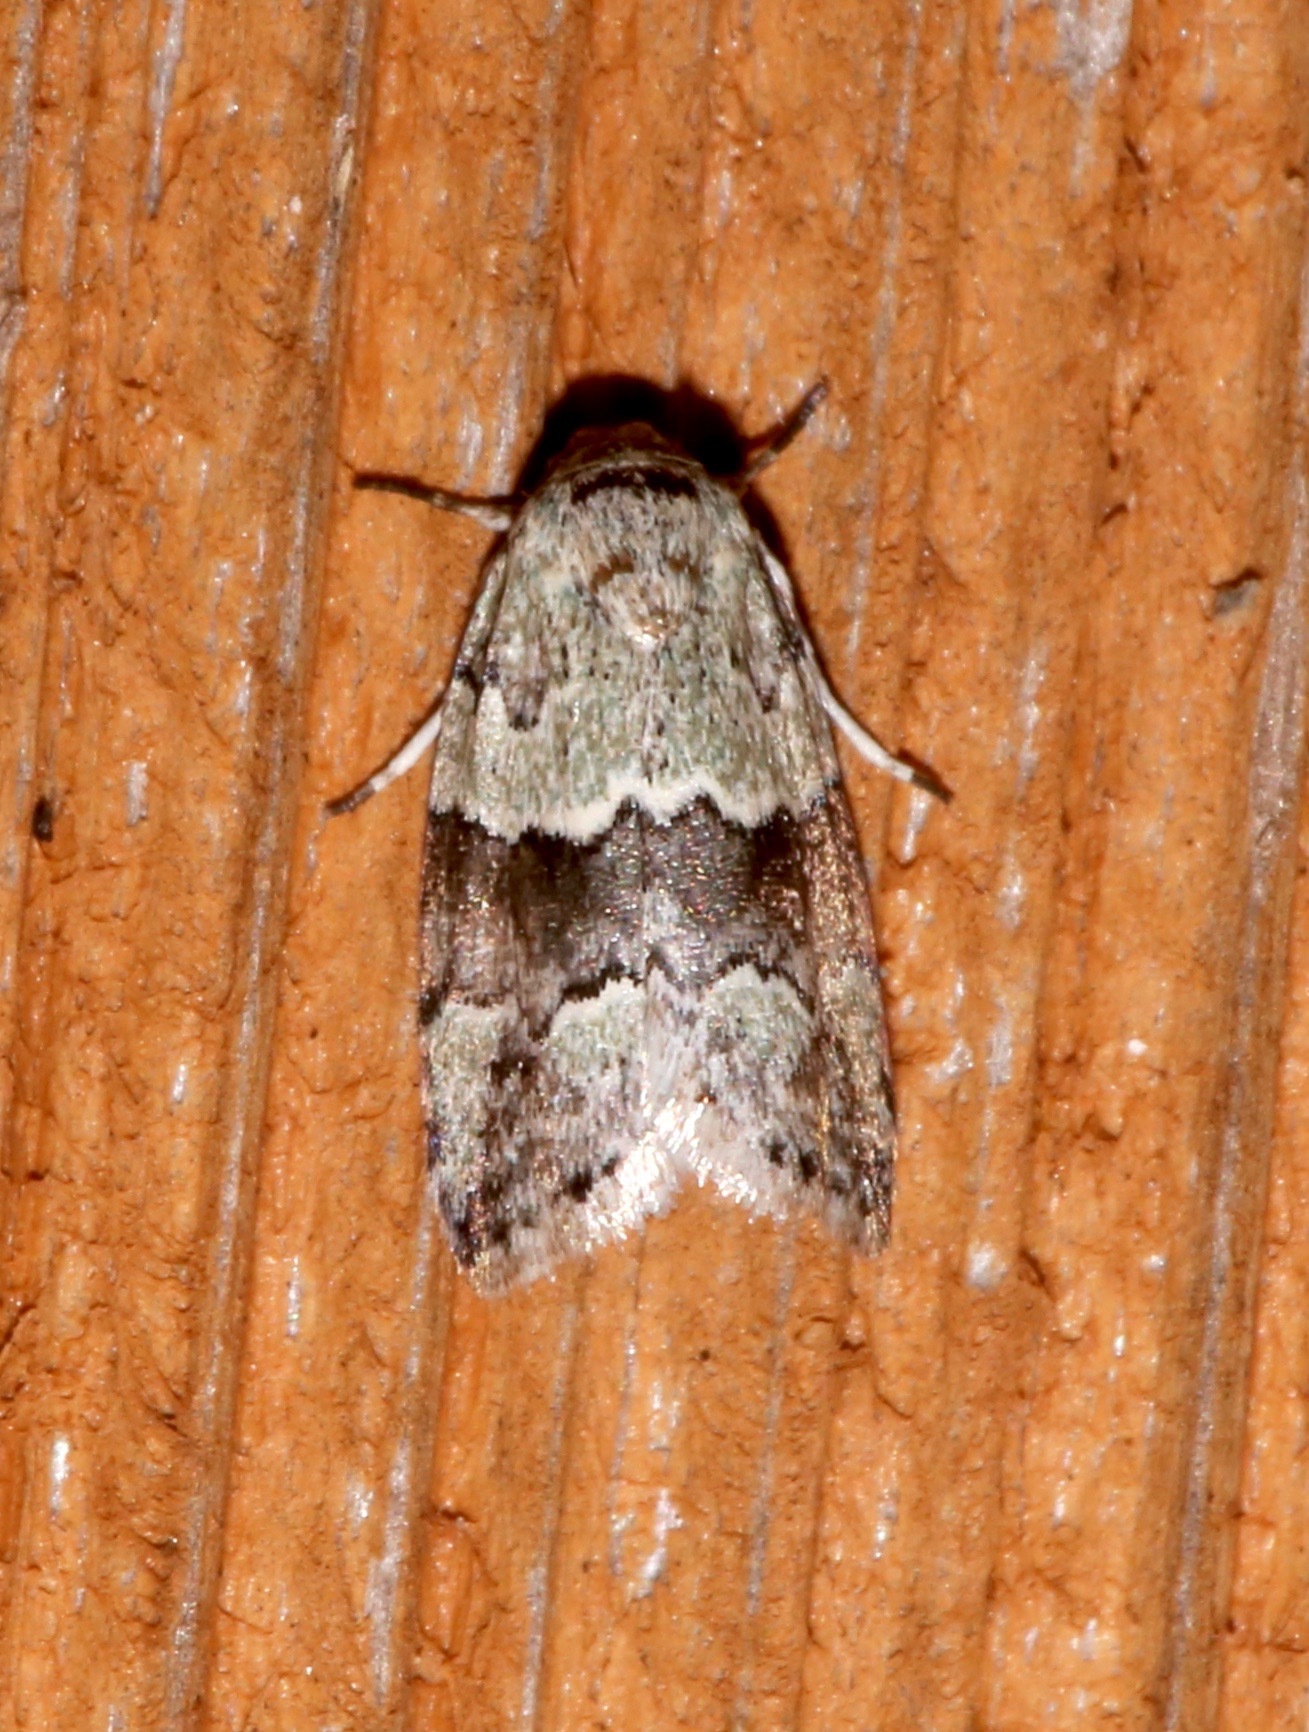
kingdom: Animalia
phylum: Arthropoda
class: Insecta
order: Lepidoptera
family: Nolidae
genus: Afrida
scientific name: Afrida ydatodes
